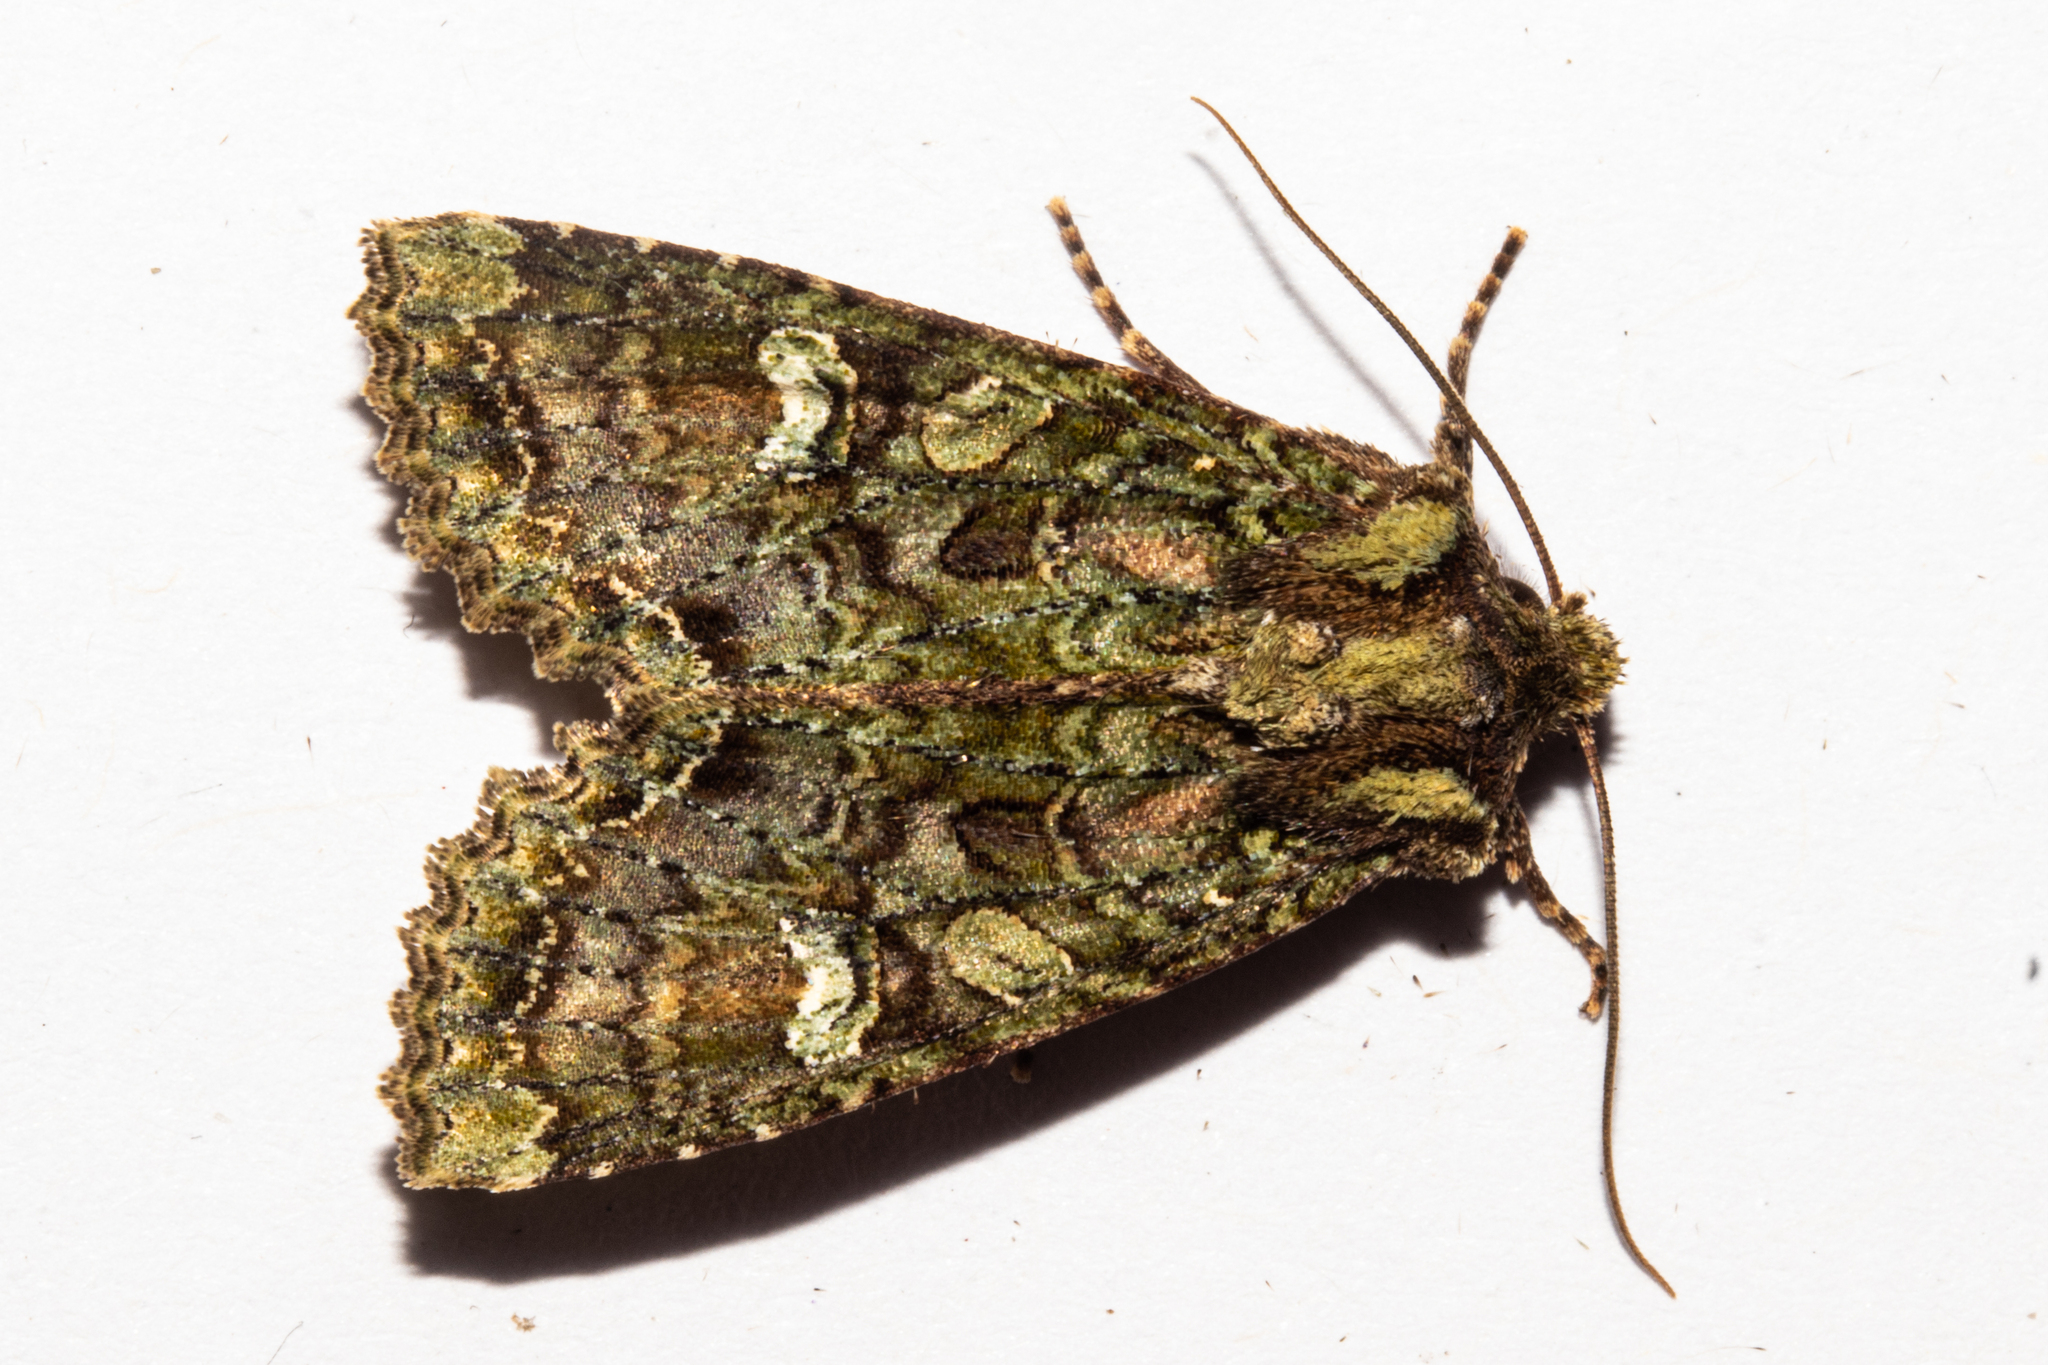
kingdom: Animalia
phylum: Arthropoda
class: Insecta
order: Lepidoptera
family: Noctuidae
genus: Meterana
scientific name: Meterana
